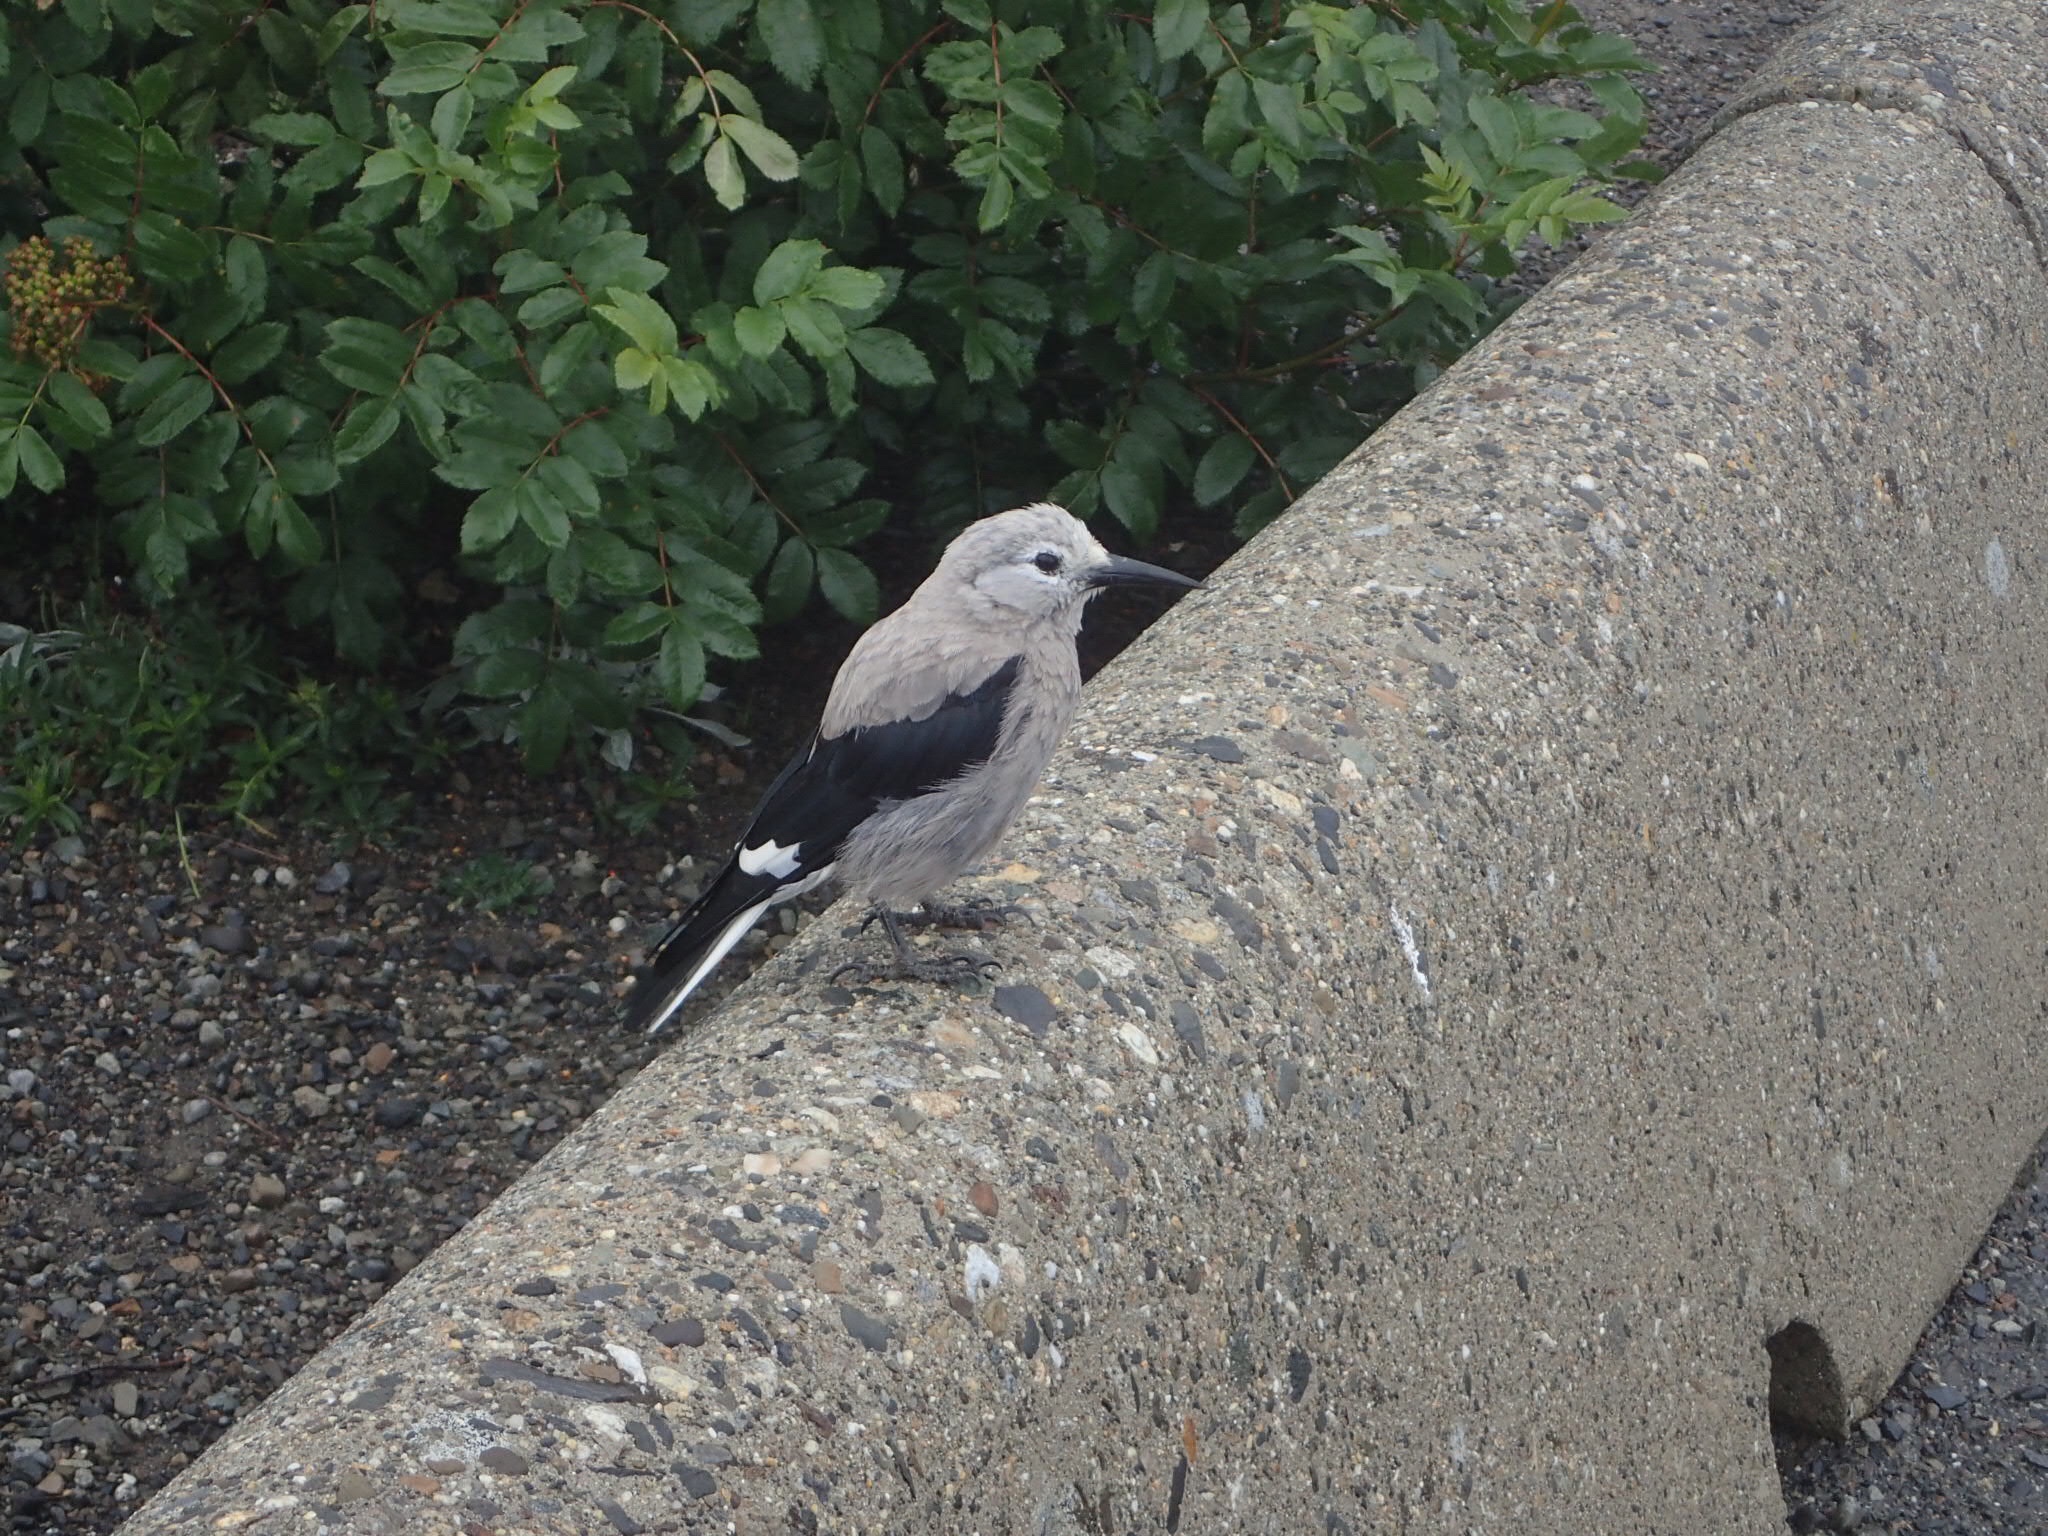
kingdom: Animalia
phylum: Chordata
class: Aves
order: Passeriformes
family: Corvidae
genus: Nucifraga
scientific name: Nucifraga columbiana
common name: Clark's nutcracker
